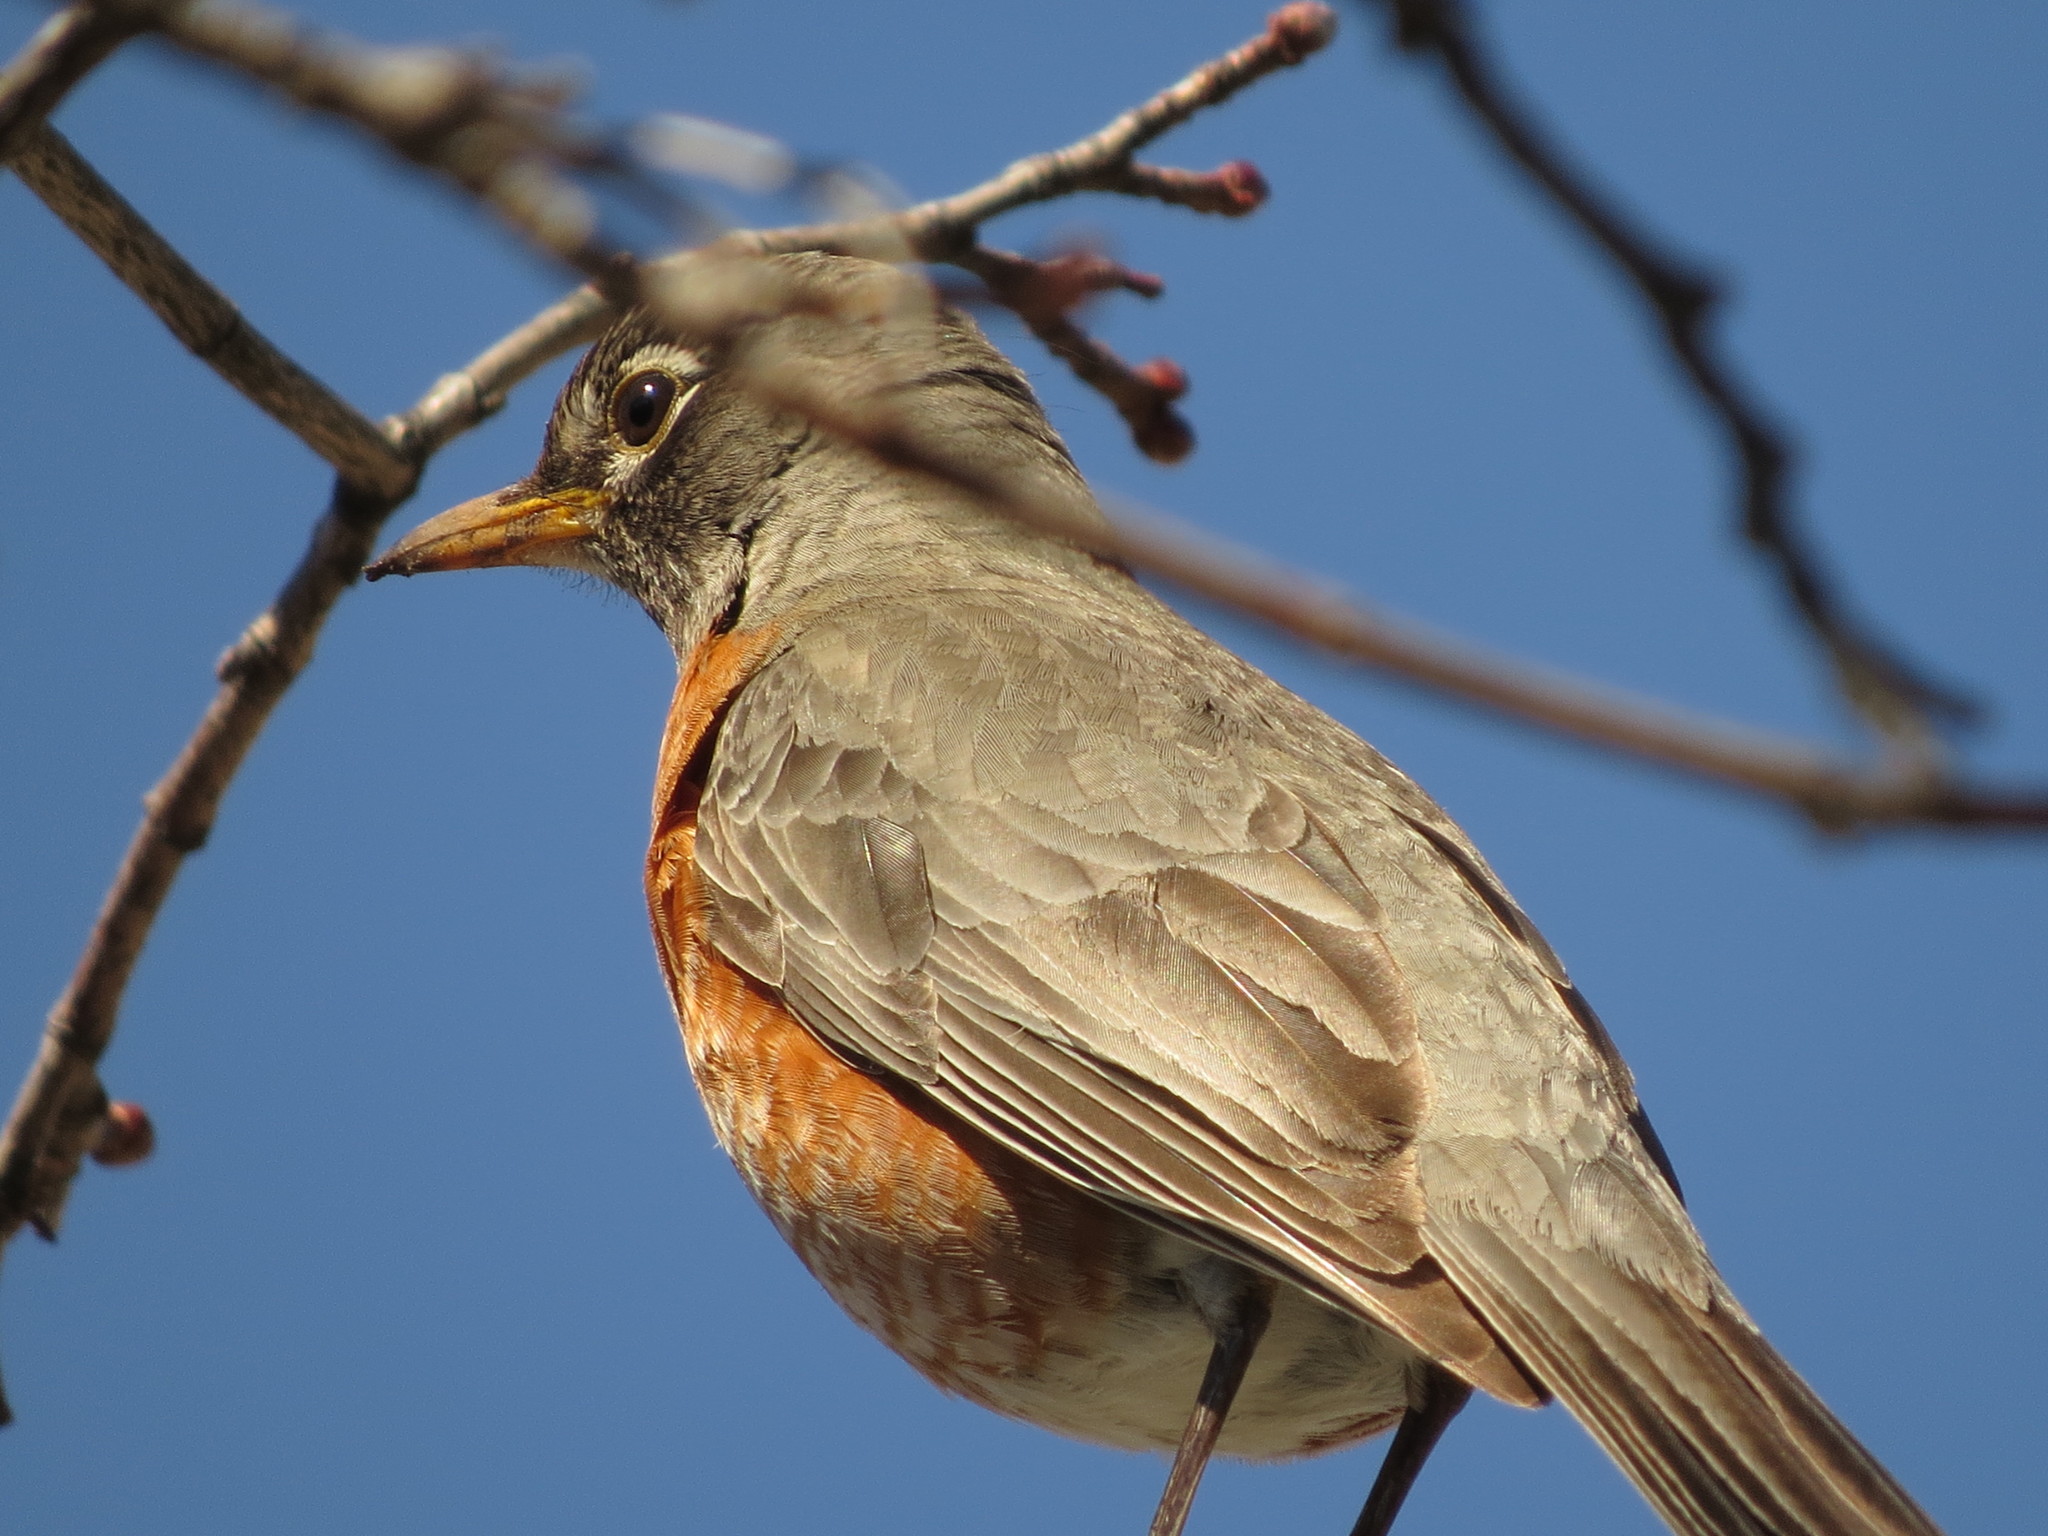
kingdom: Animalia
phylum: Chordata
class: Aves
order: Passeriformes
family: Turdidae
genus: Turdus
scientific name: Turdus migratorius
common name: American robin
